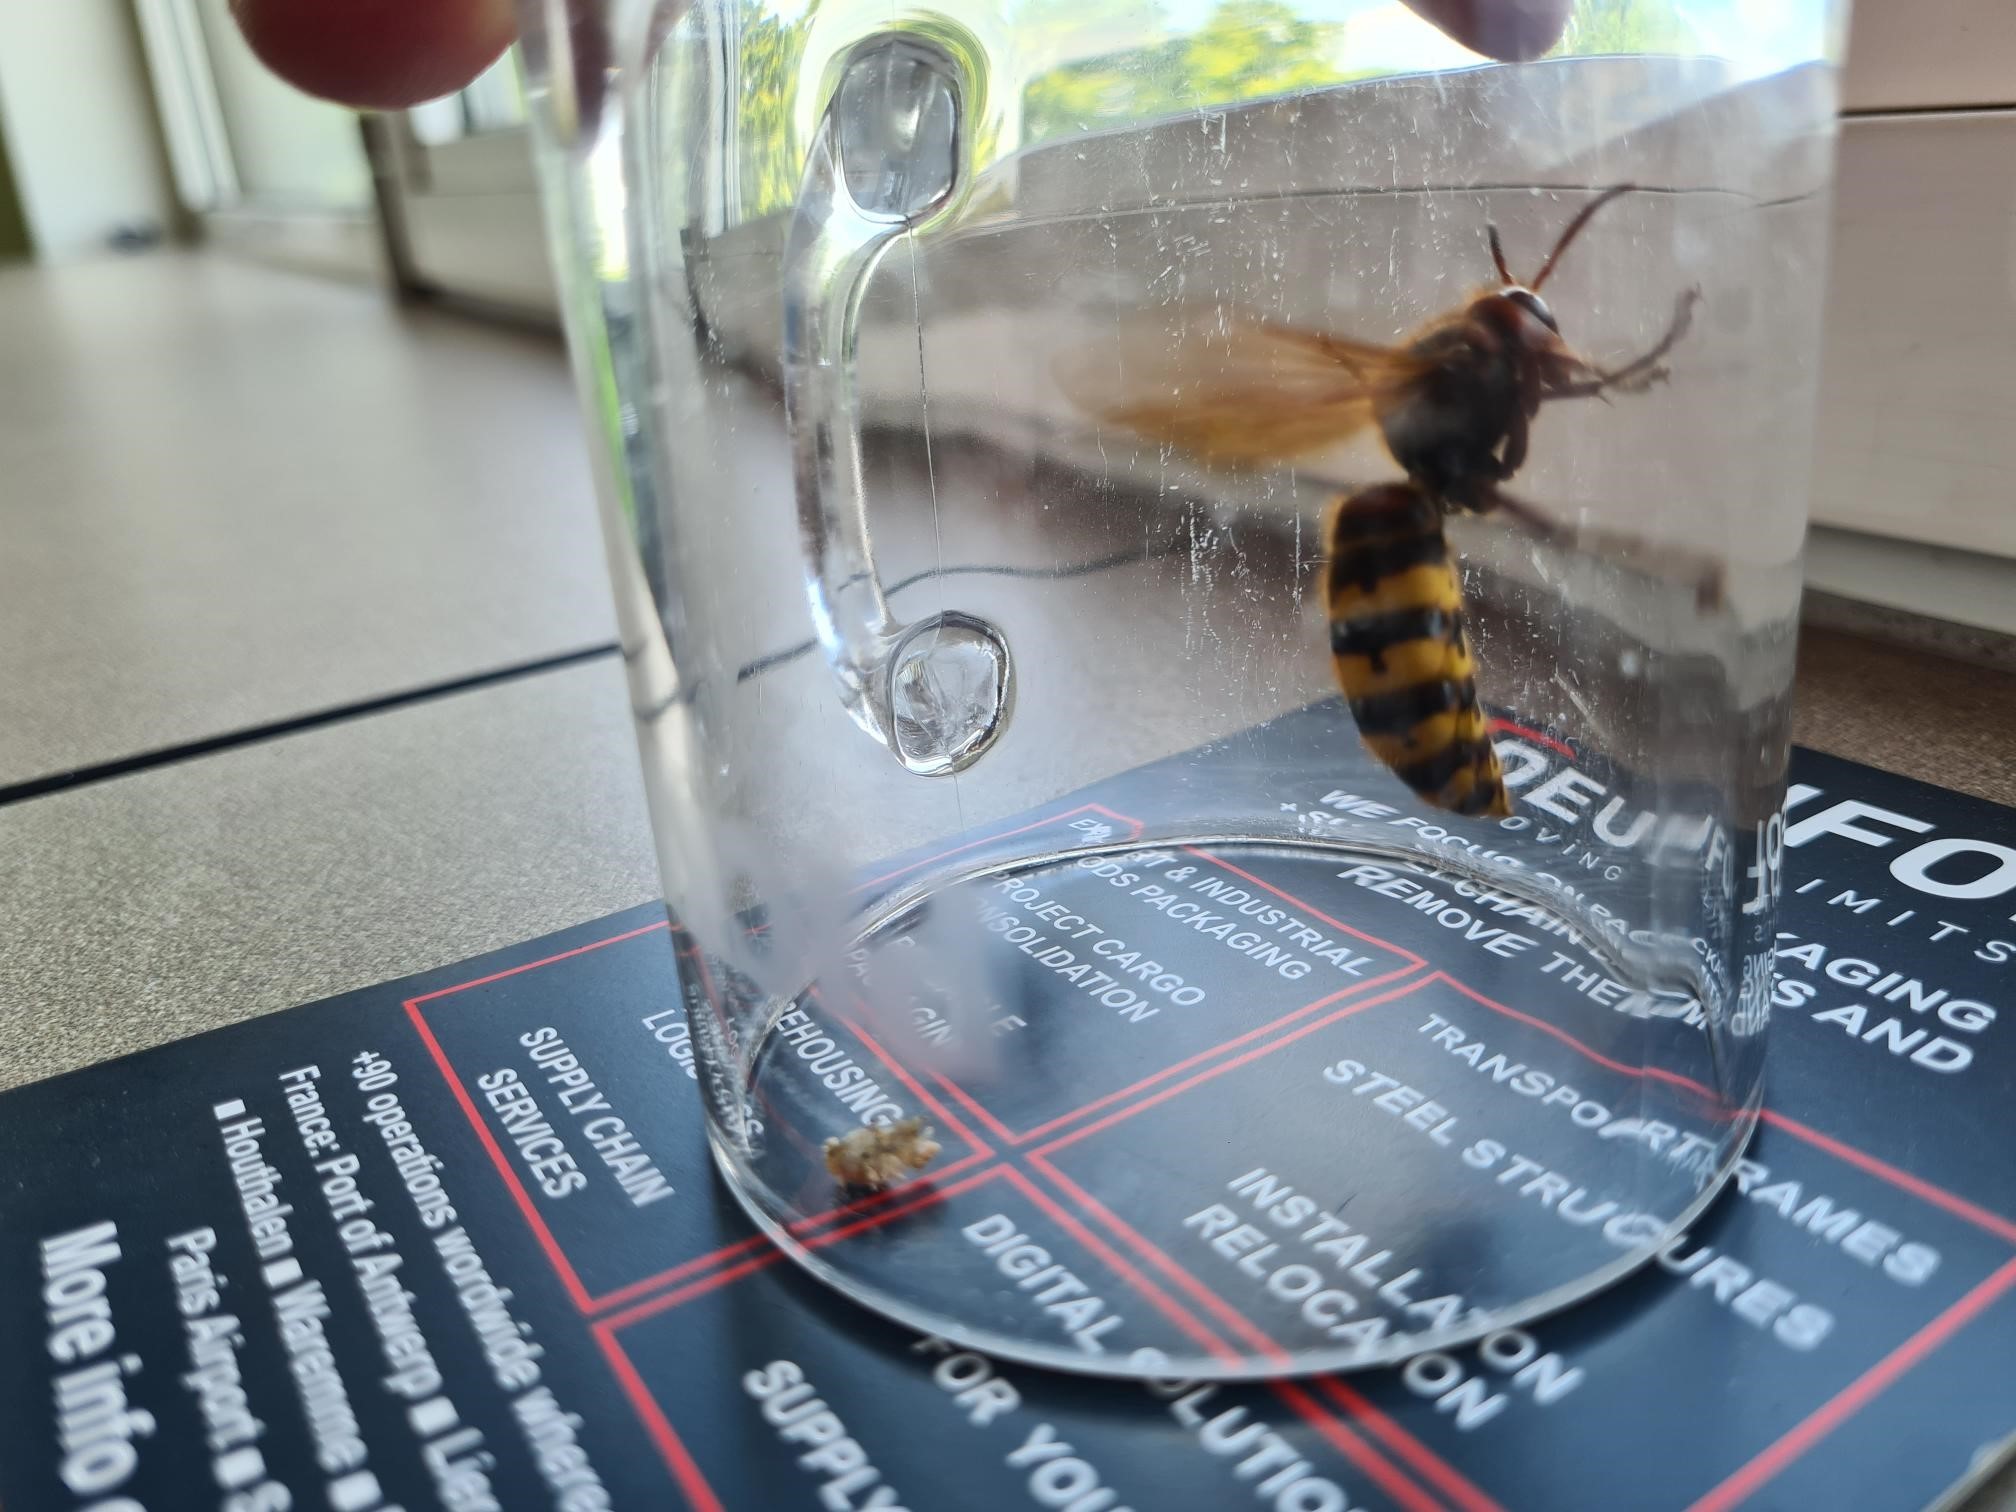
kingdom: Animalia
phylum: Arthropoda
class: Insecta
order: Hymenoptera
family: Vespidae
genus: Vespa
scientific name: Vespa crabro
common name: Hornet
